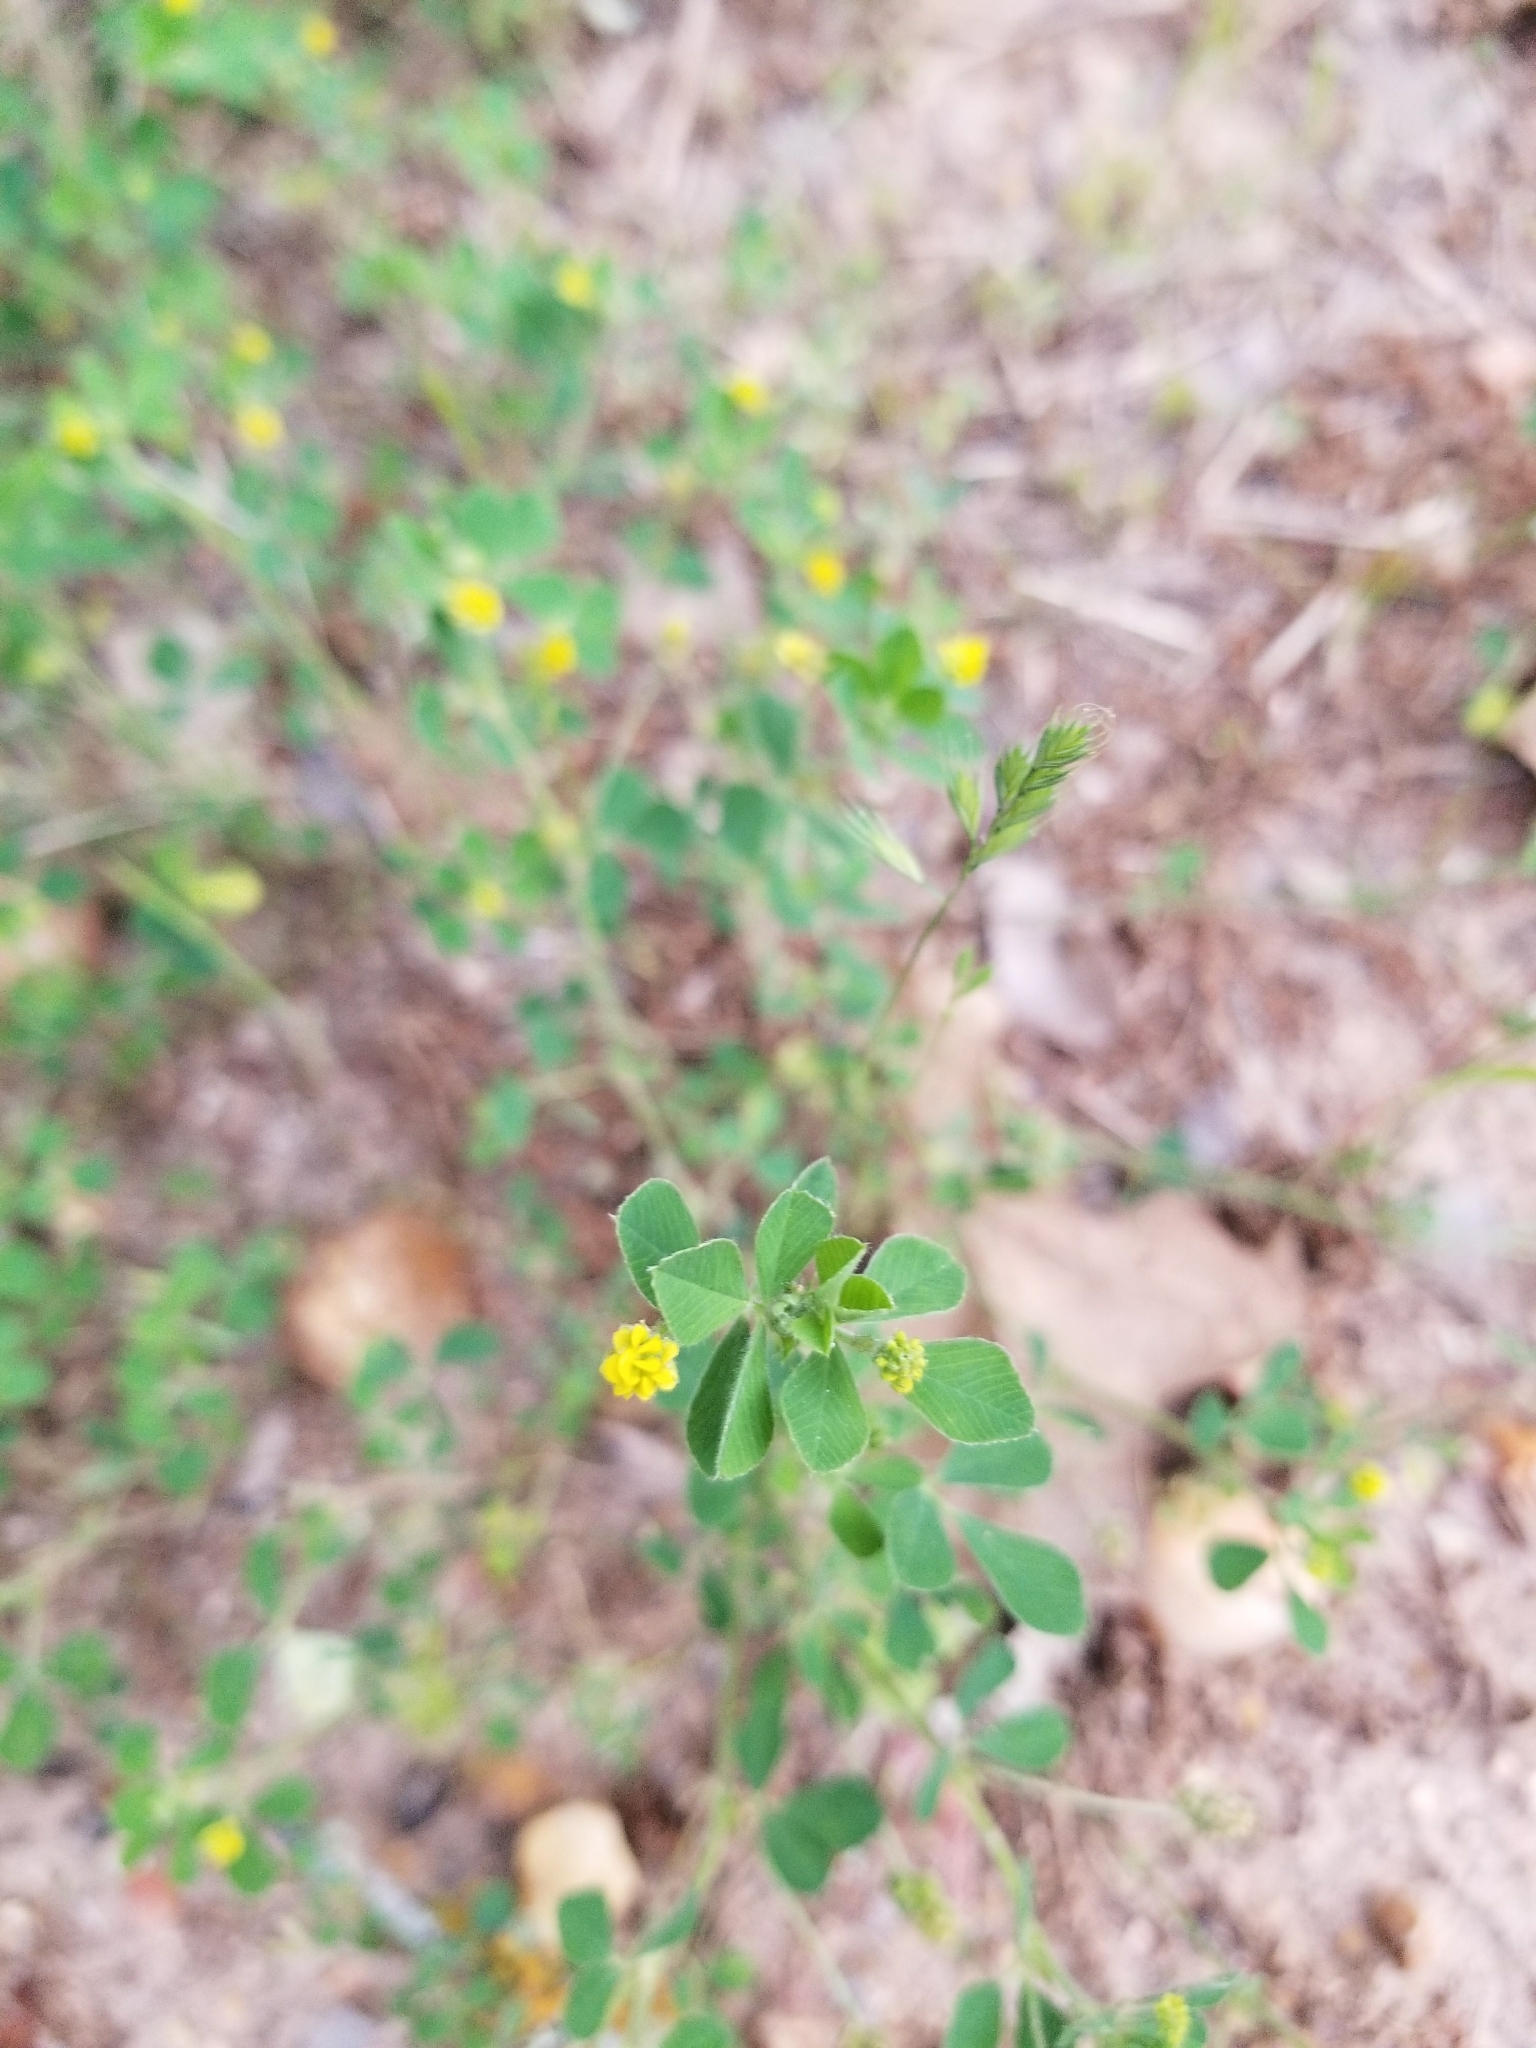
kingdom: Plantae
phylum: Tracheophyta
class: Magnoliopsida
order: Fabales
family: Fabaceae
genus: Medicago
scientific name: Medicago lupulina
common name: Black medick
